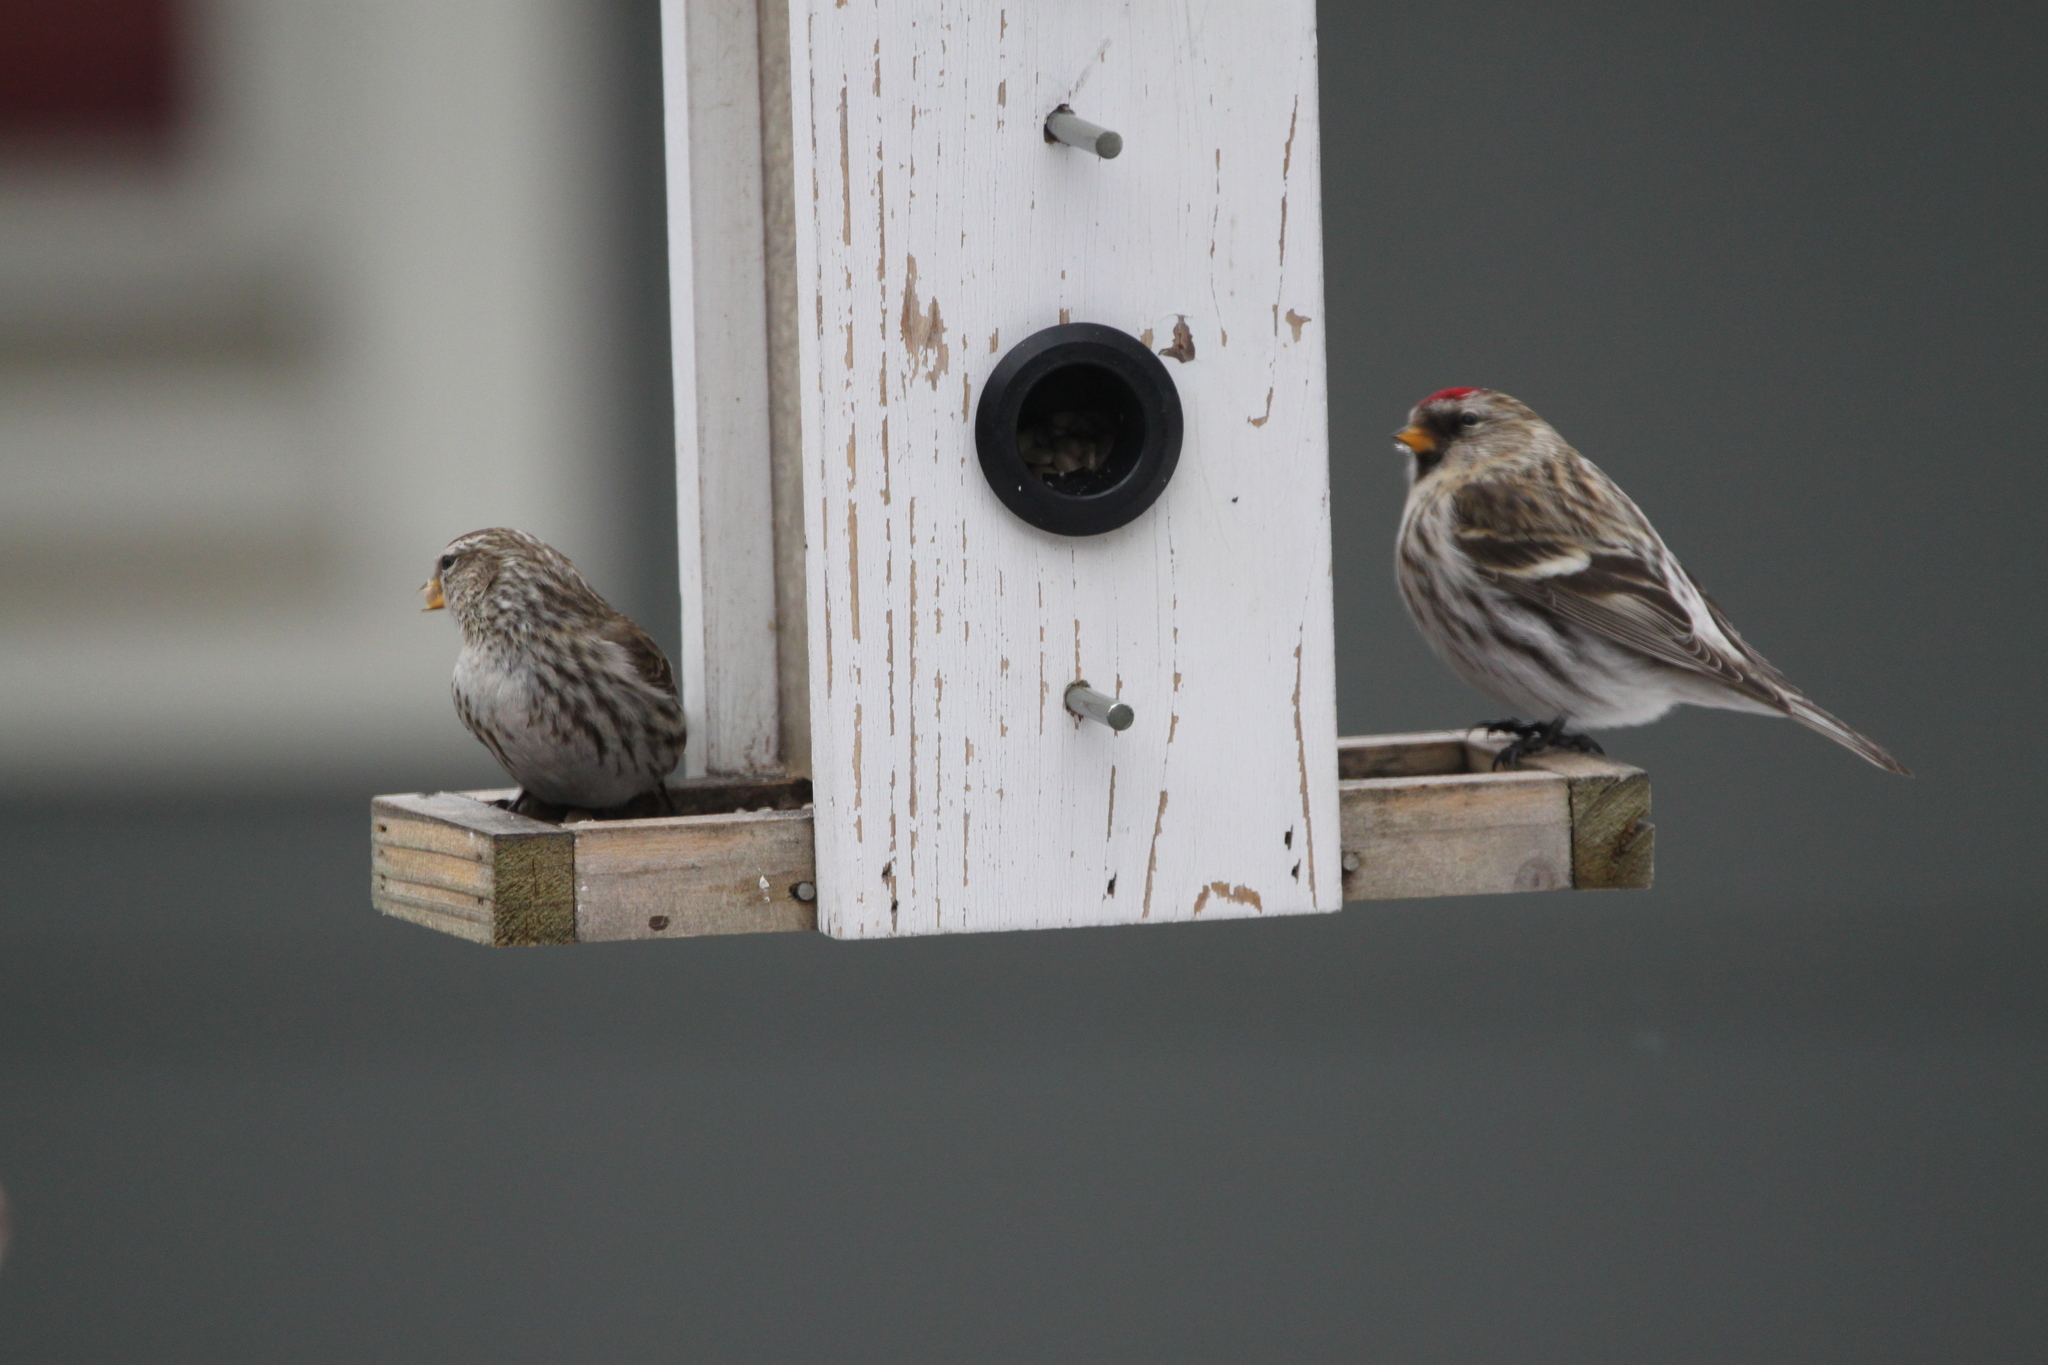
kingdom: Animalia
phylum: Chordata
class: Aves
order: Passeriformes
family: Fringillidae
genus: Acanthis
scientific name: Acanthis flammea
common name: Common redpoll
